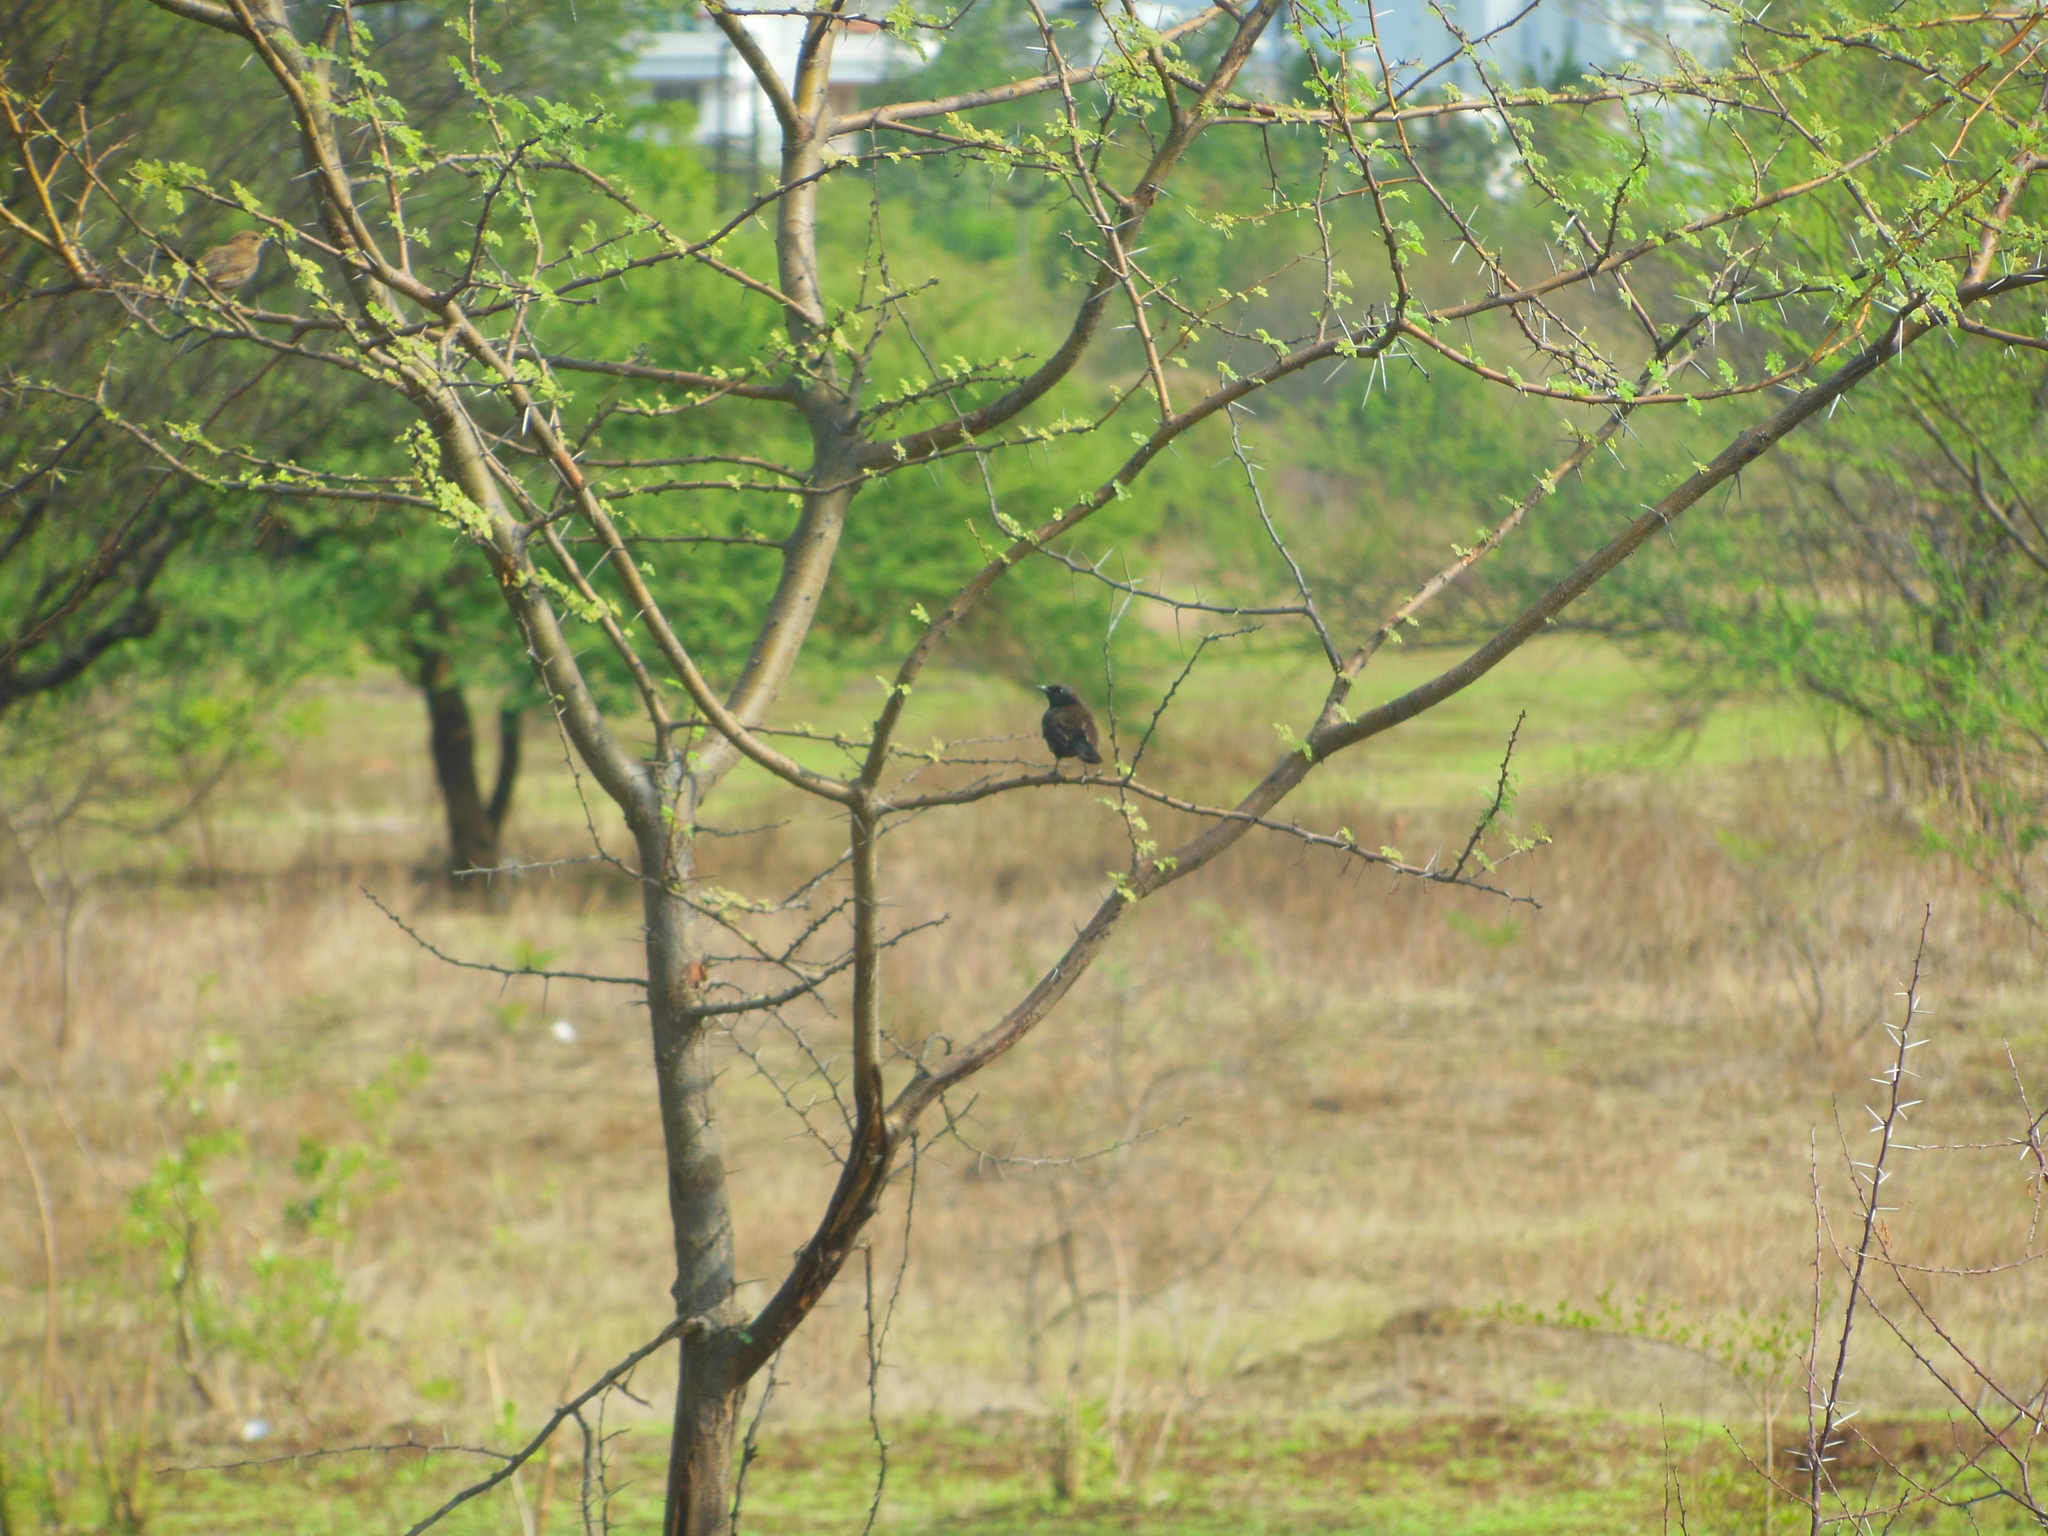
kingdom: Animalia
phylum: Chordata
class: Aves
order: Passeriformes
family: Muscicapidae
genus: Saxicoloides
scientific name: Saxicoloides fulicatus
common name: Indian robin
